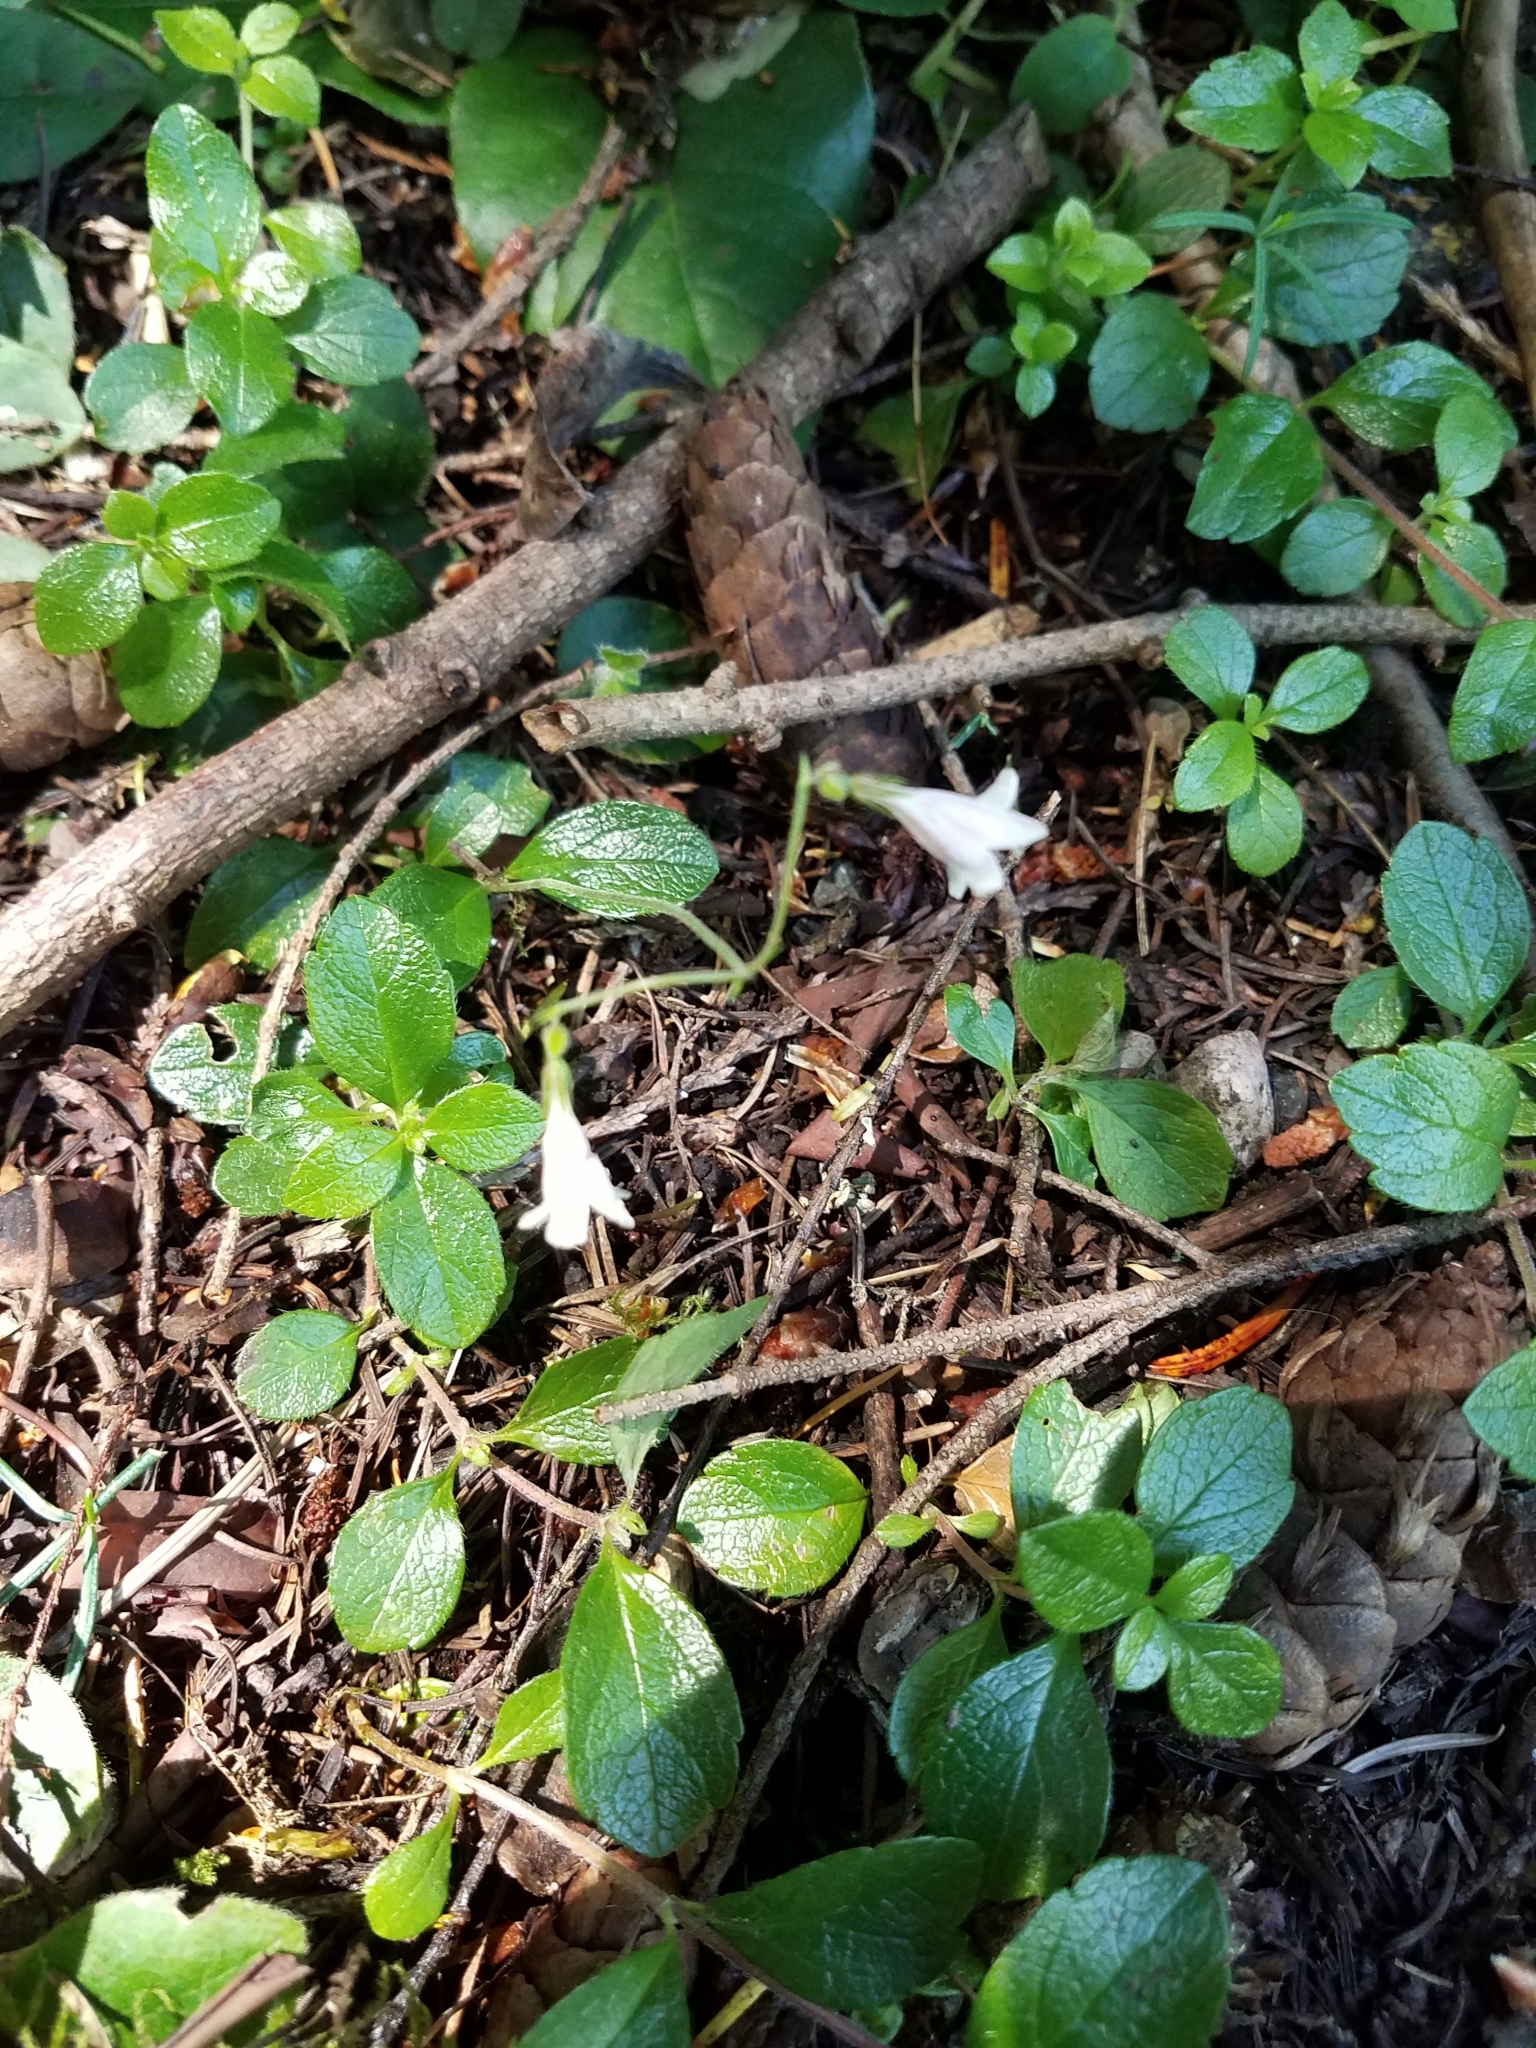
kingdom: Plantae
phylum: Tracheophyta
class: Magnoliopsida
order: Dipsacales
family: Caprifoliaceae
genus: Linnaea
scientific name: Linnaea borealis
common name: Twinflower
